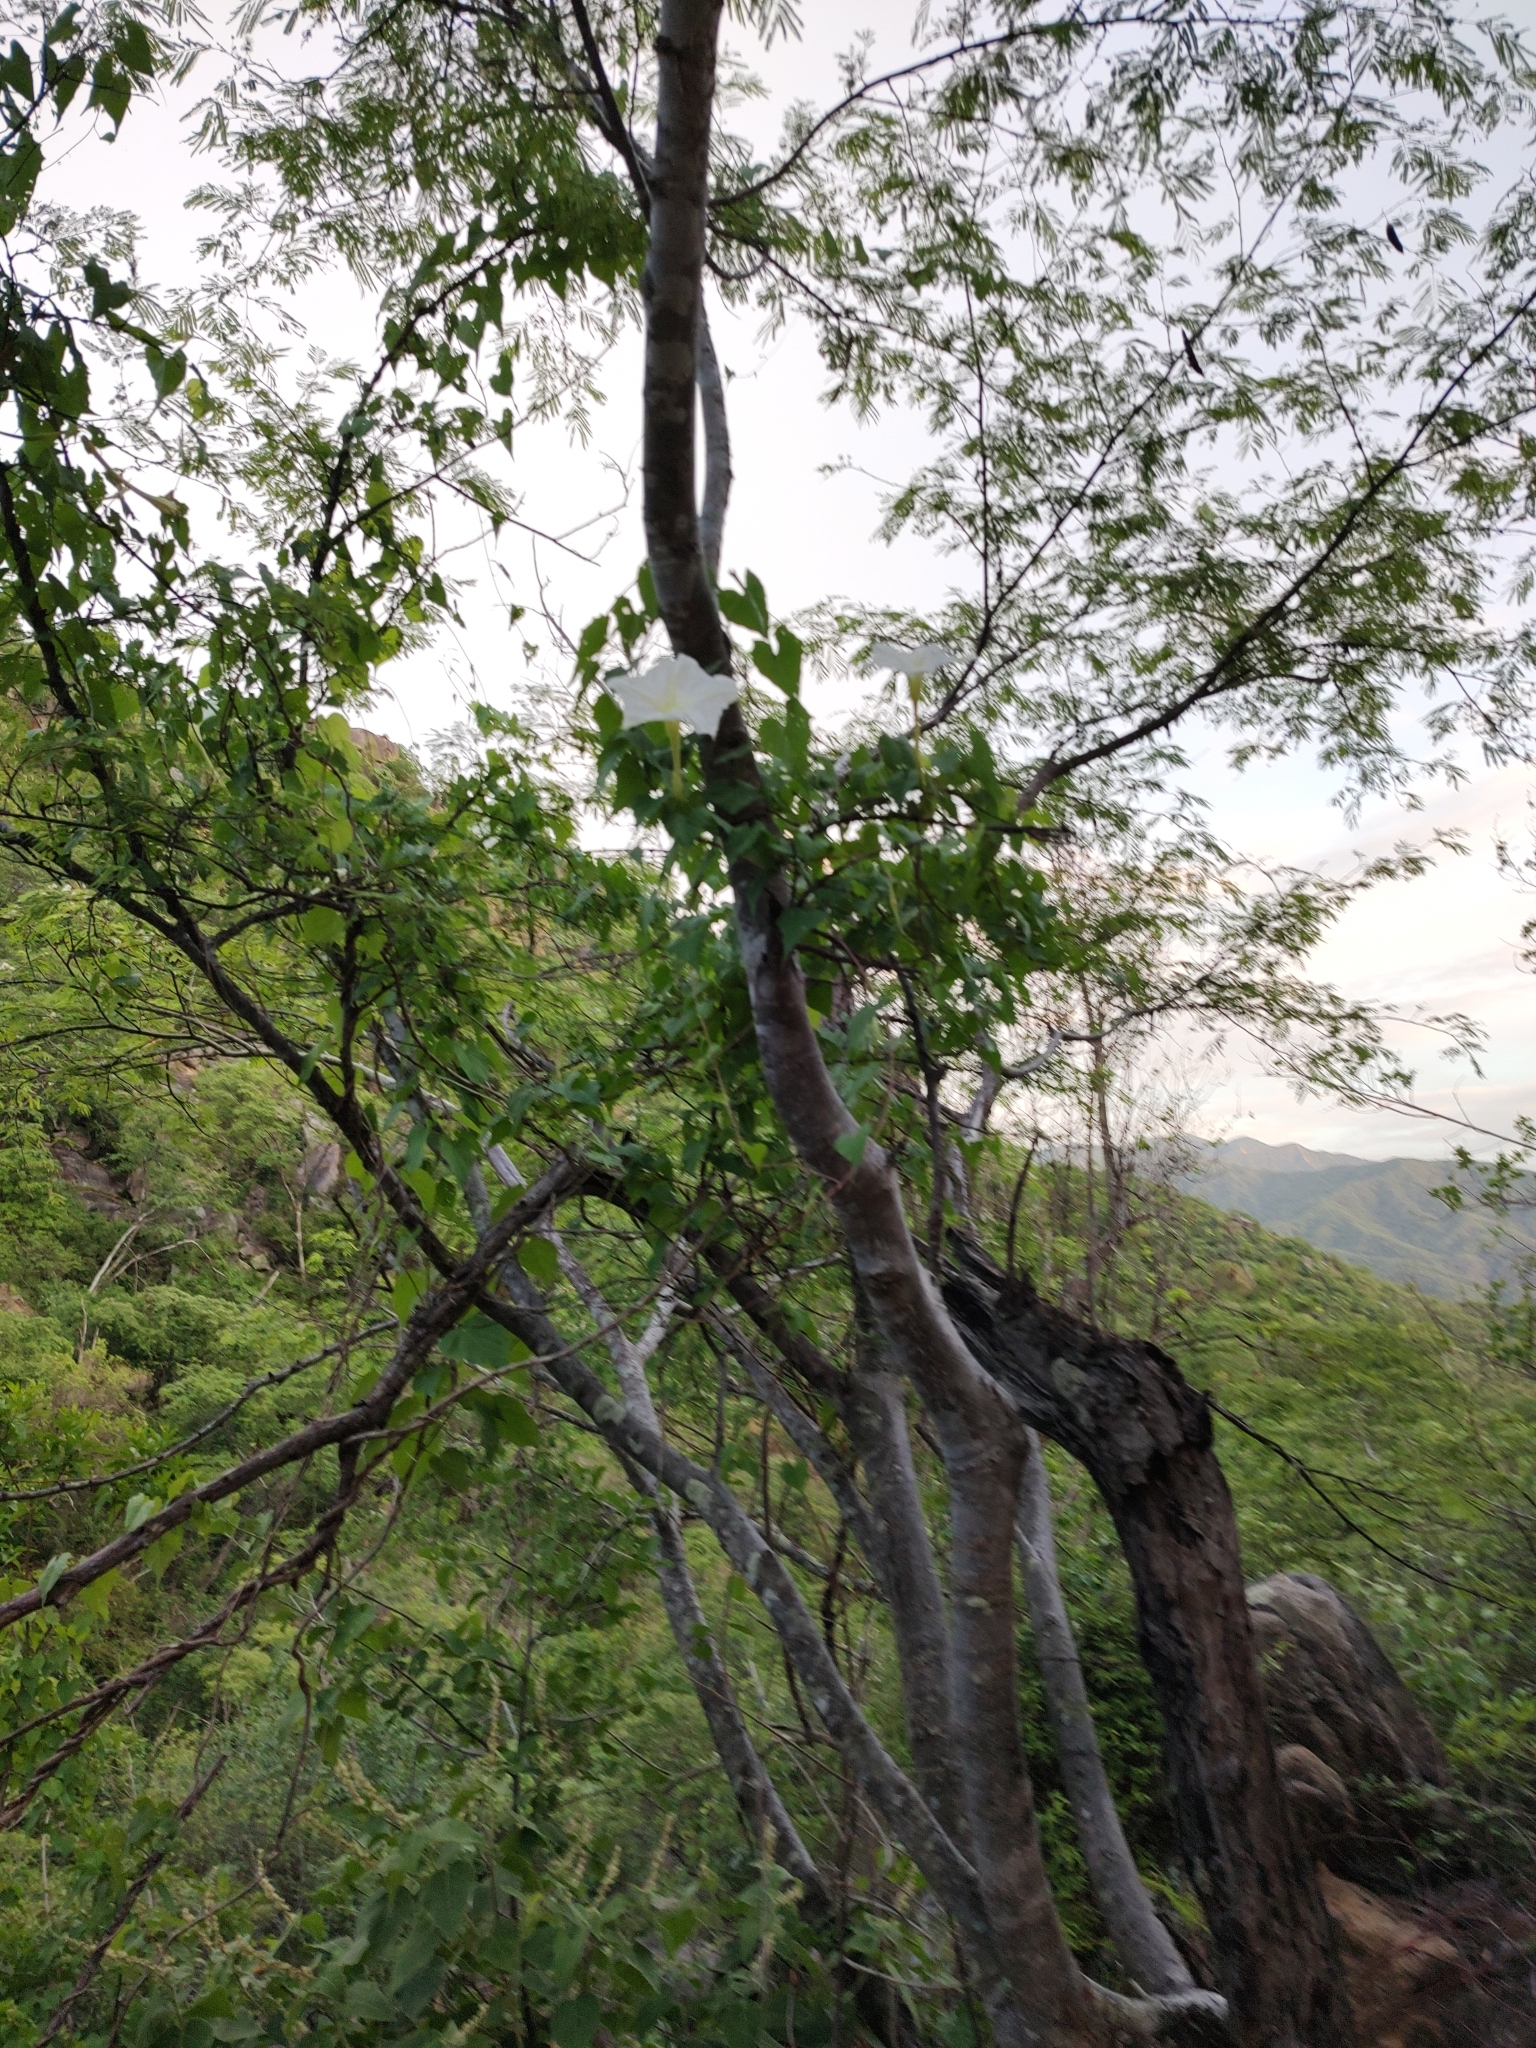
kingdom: Plantae
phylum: Tracheophyta
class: Magnoliopsida
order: Solanales
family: Convolvulaceae
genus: Ipomoea
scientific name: Ipomoea tastensis
